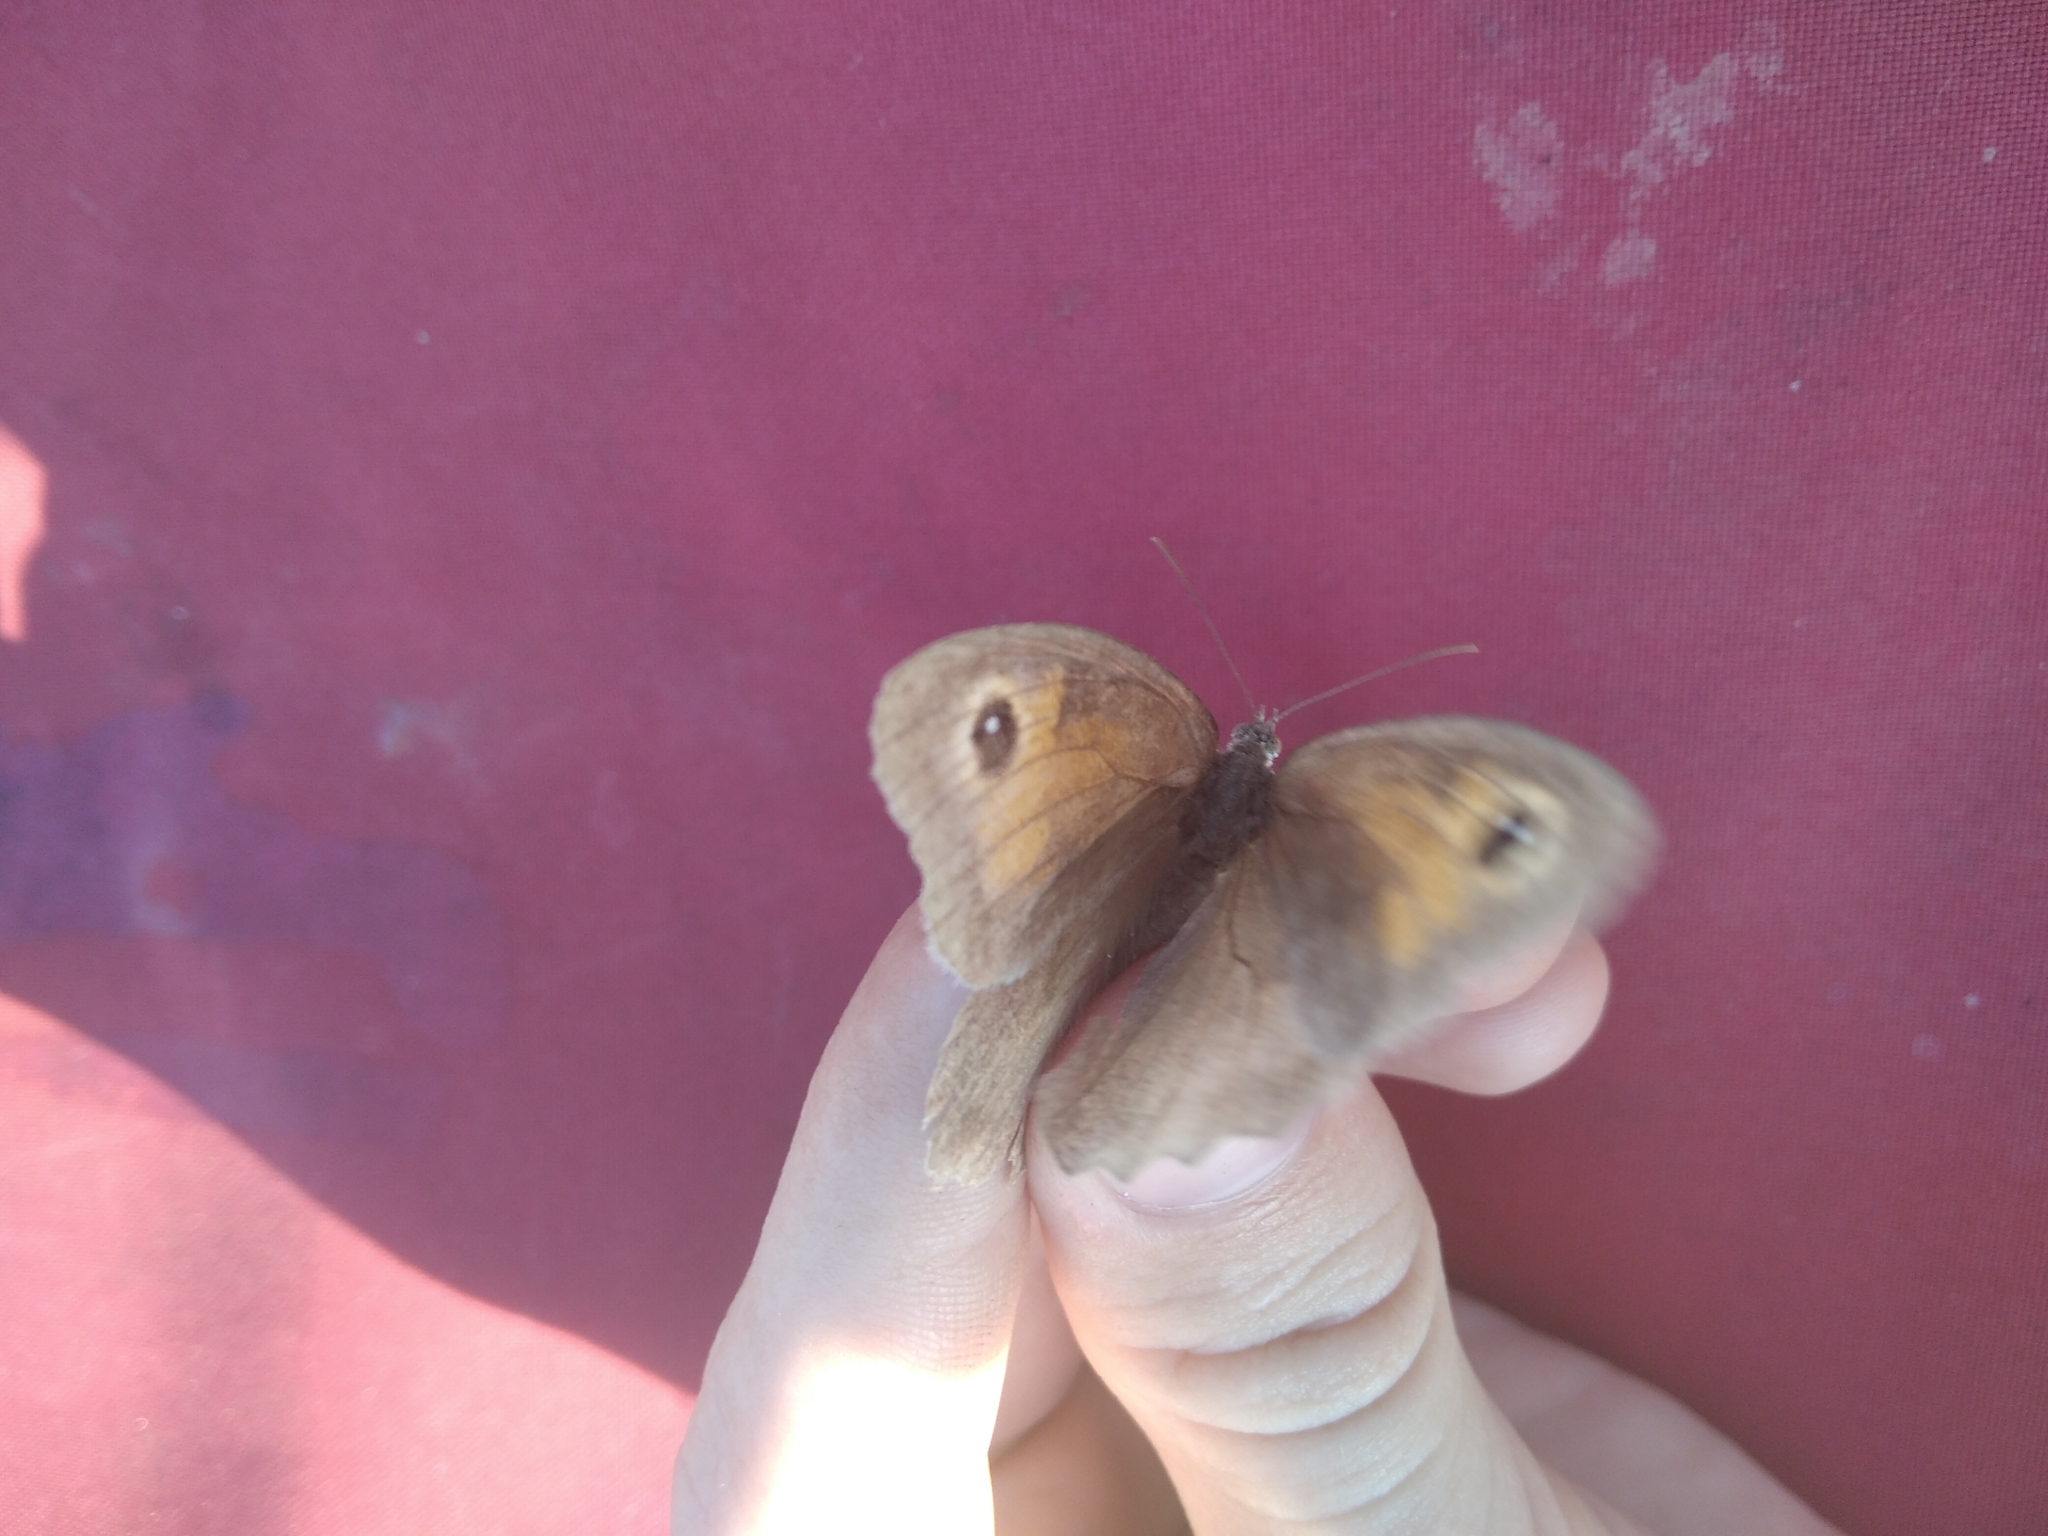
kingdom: Animalia
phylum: Arthropoda
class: Insecta
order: Lepidoptera
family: Nymphalidae
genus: Maniola
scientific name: Maniola jurtina
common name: Meadow brown
